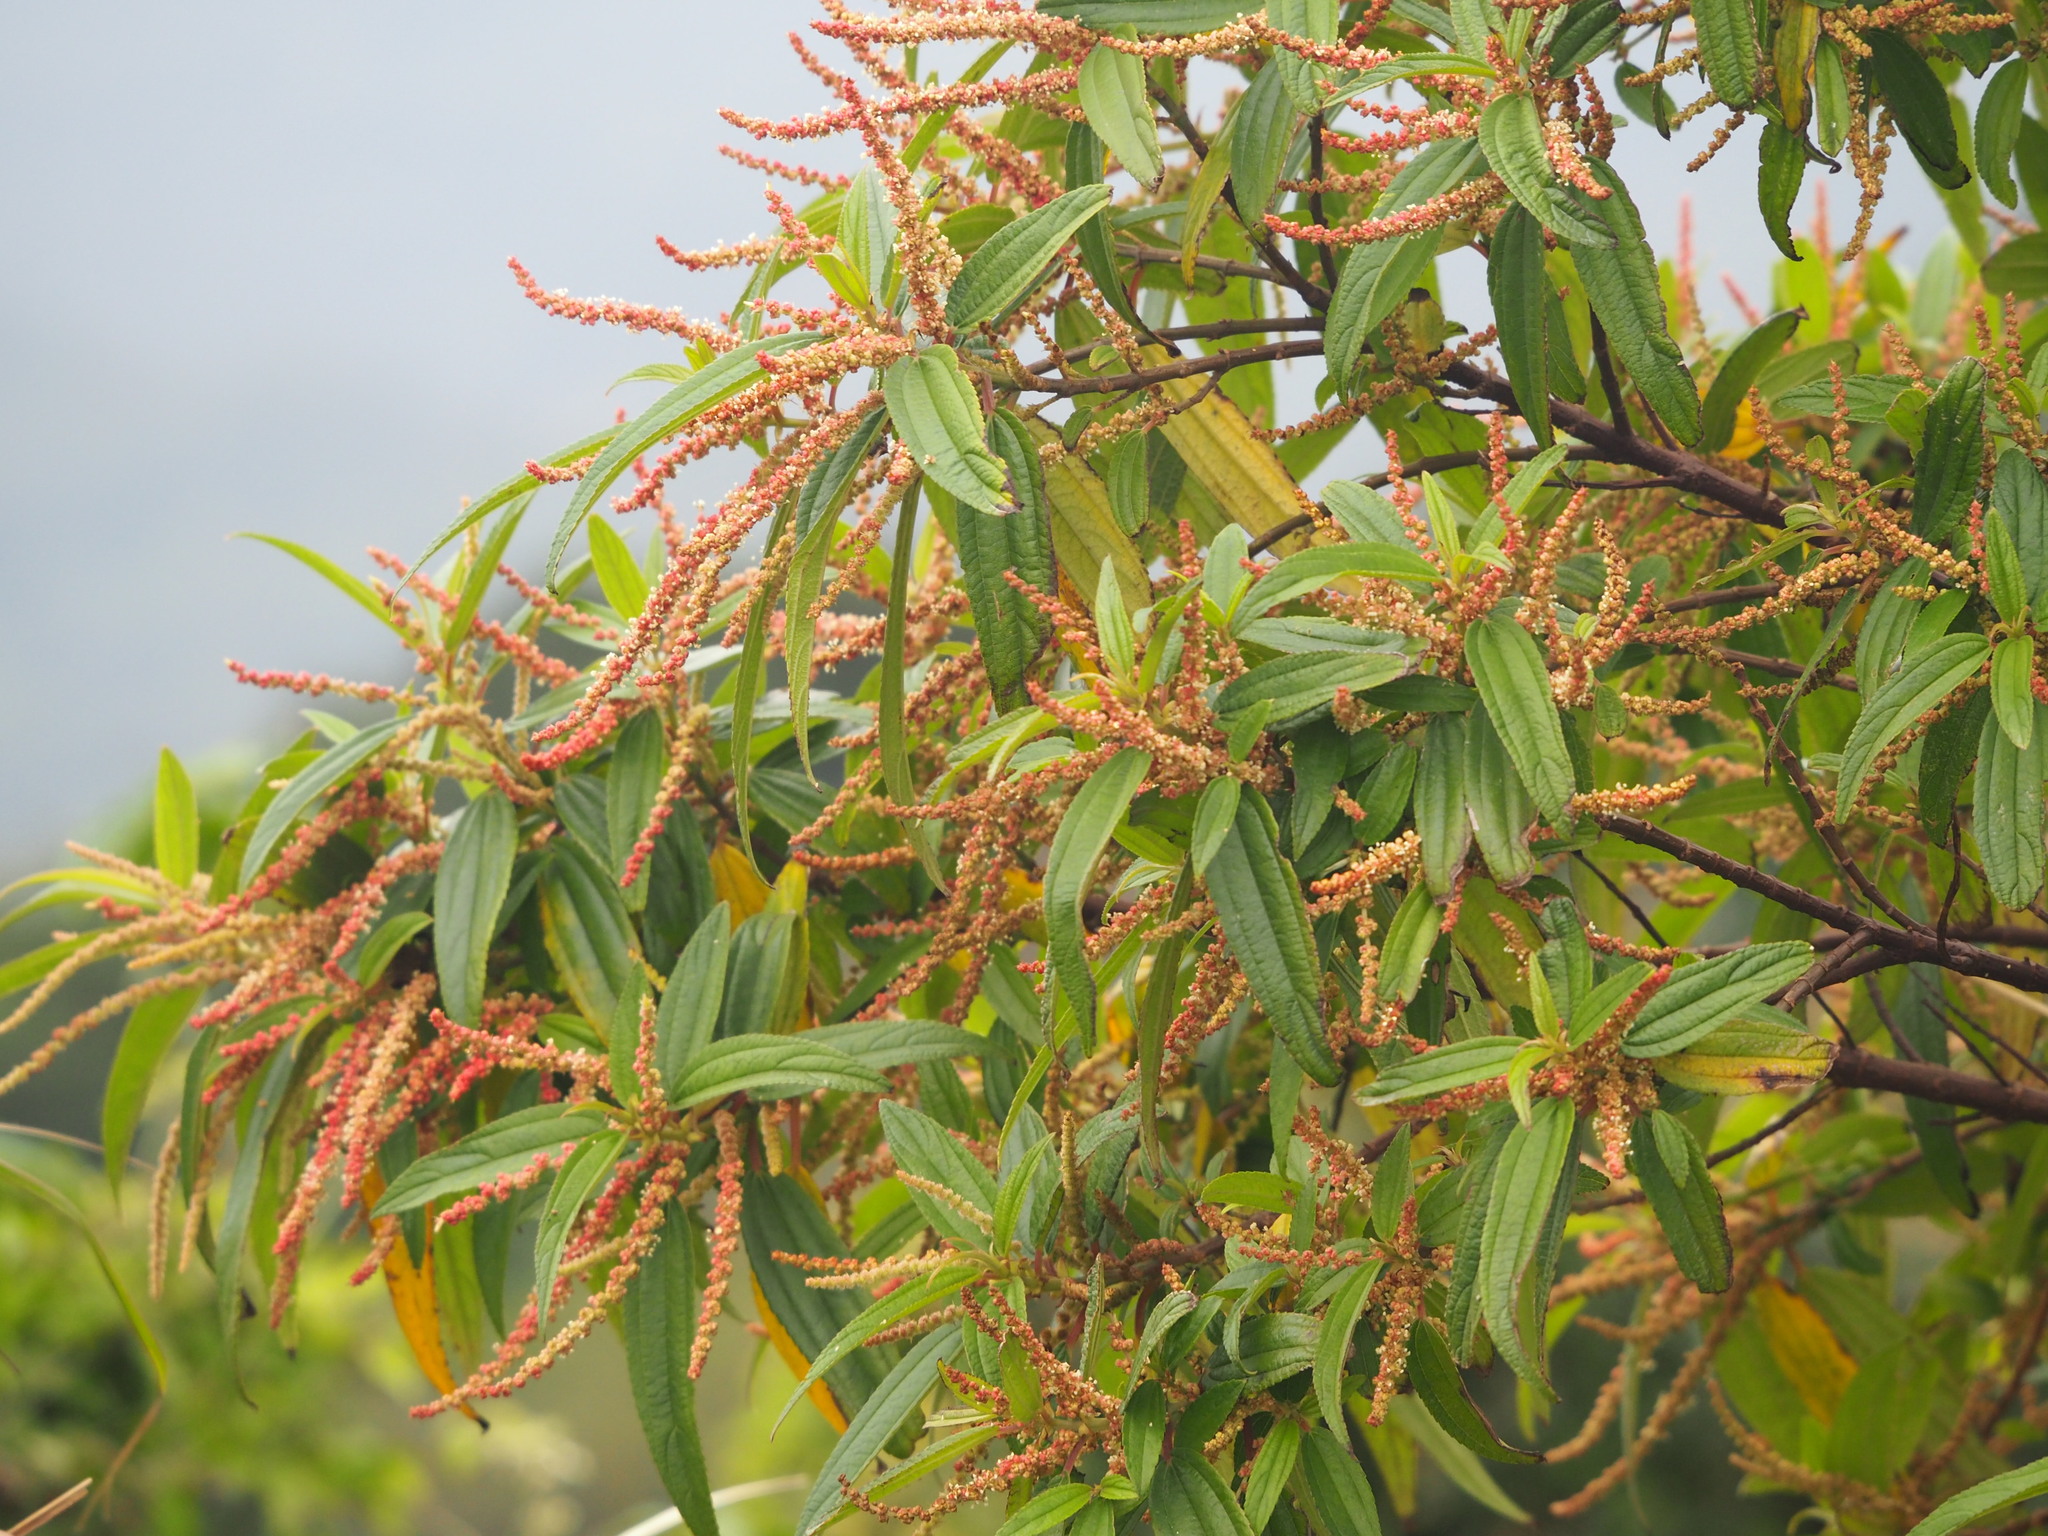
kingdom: Plantae
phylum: Tracheophyta
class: Magnoliopsida
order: Rosales
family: Urticaceae
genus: Boehmeria
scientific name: Boehmeria densiflora
